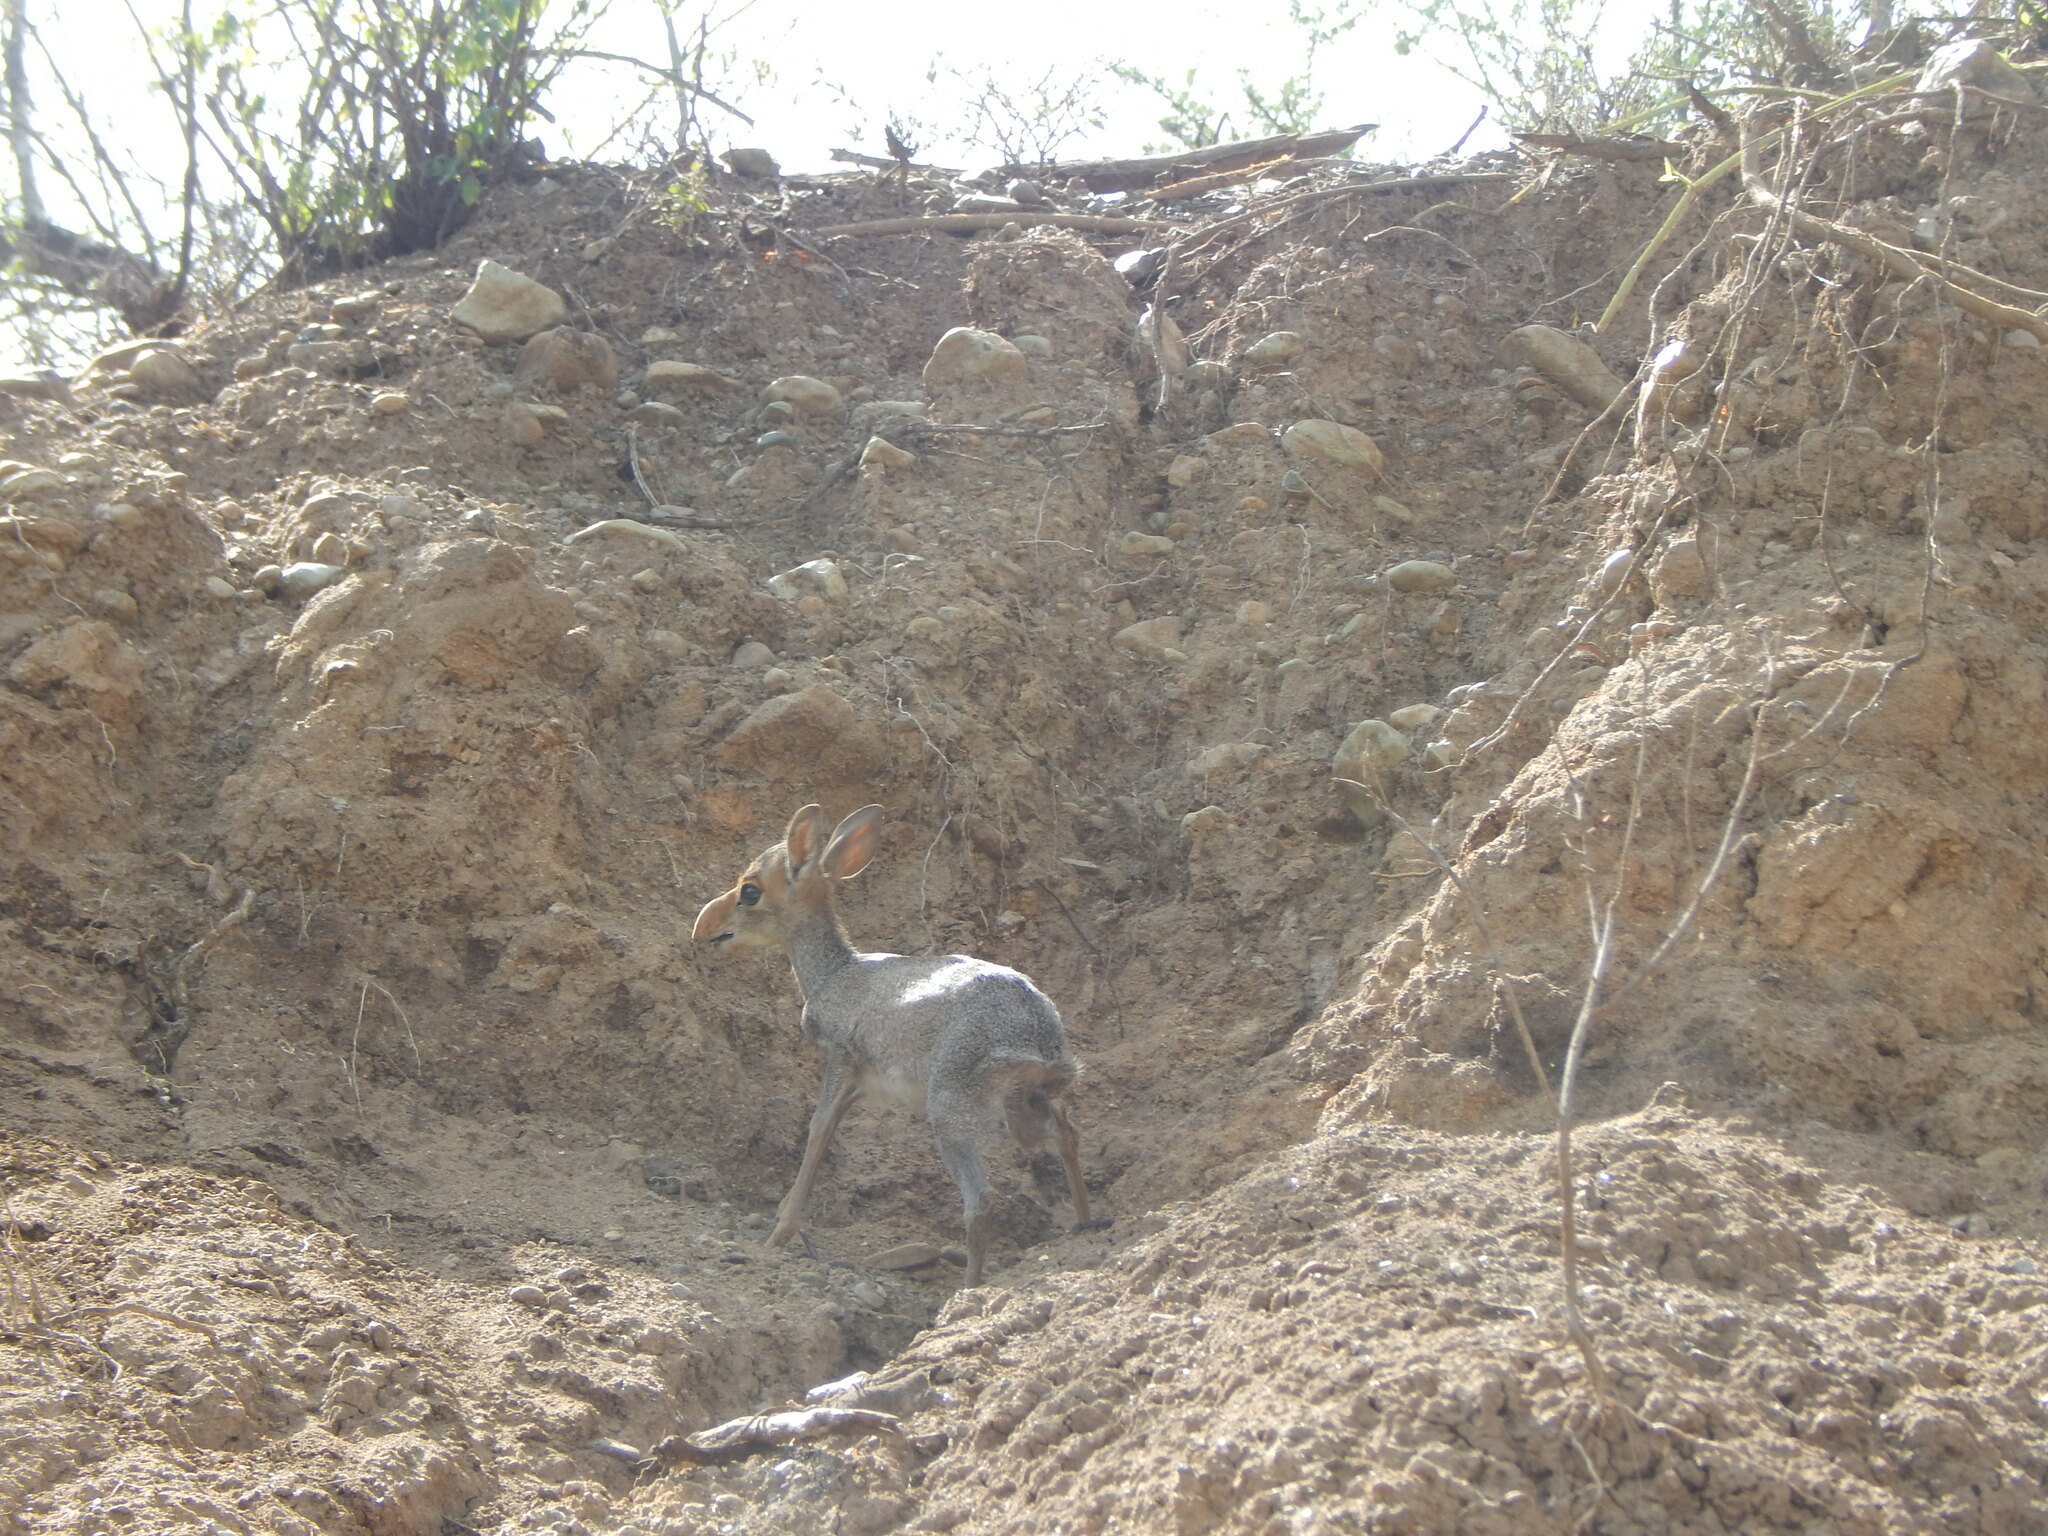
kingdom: Animalia
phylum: Chordata
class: Mammalia
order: Artiodactyla
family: Bovidae
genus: Madoqua
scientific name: Madoqua guentheri
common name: Günther's dikdik
